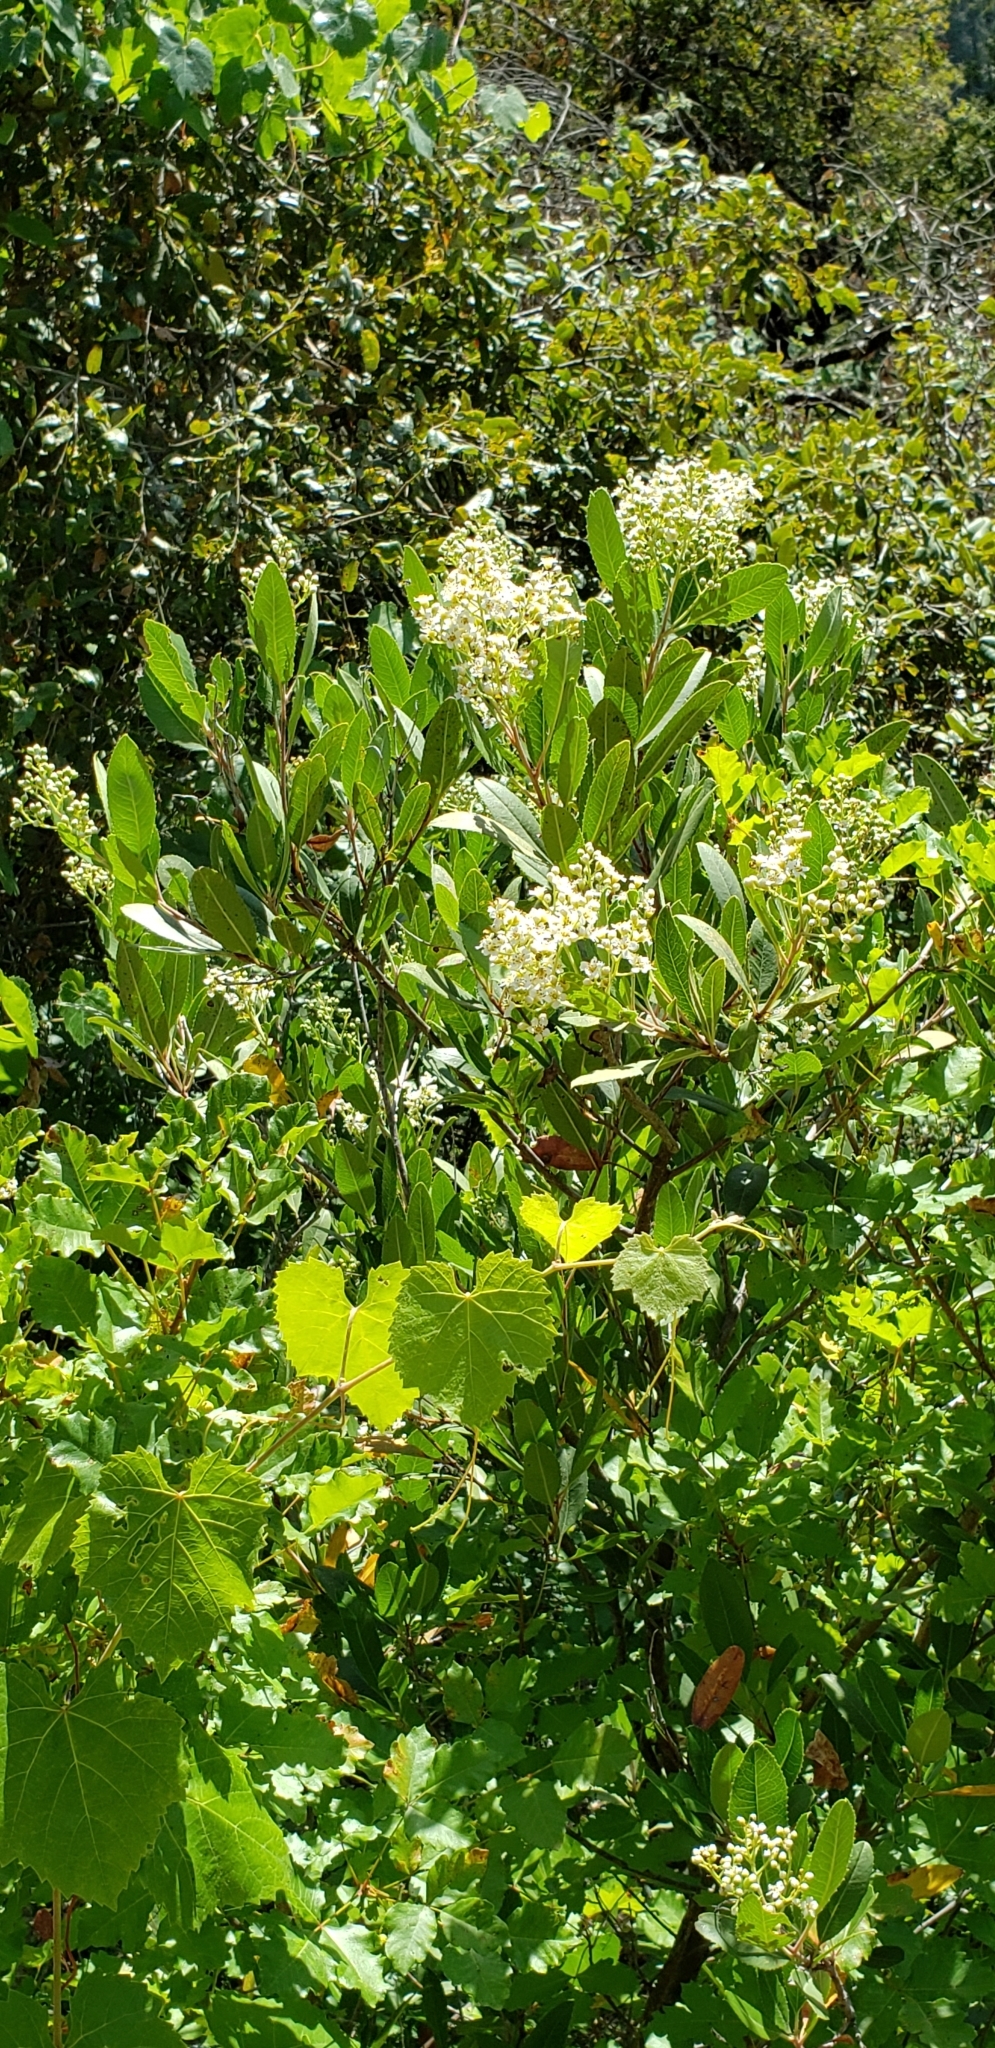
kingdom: Plantae
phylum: Tracheophyta
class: Magnoliopsida
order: Rosales
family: Rosaceae
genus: Heteromeles
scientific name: Heteromeles arbutifolia
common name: California-holly
